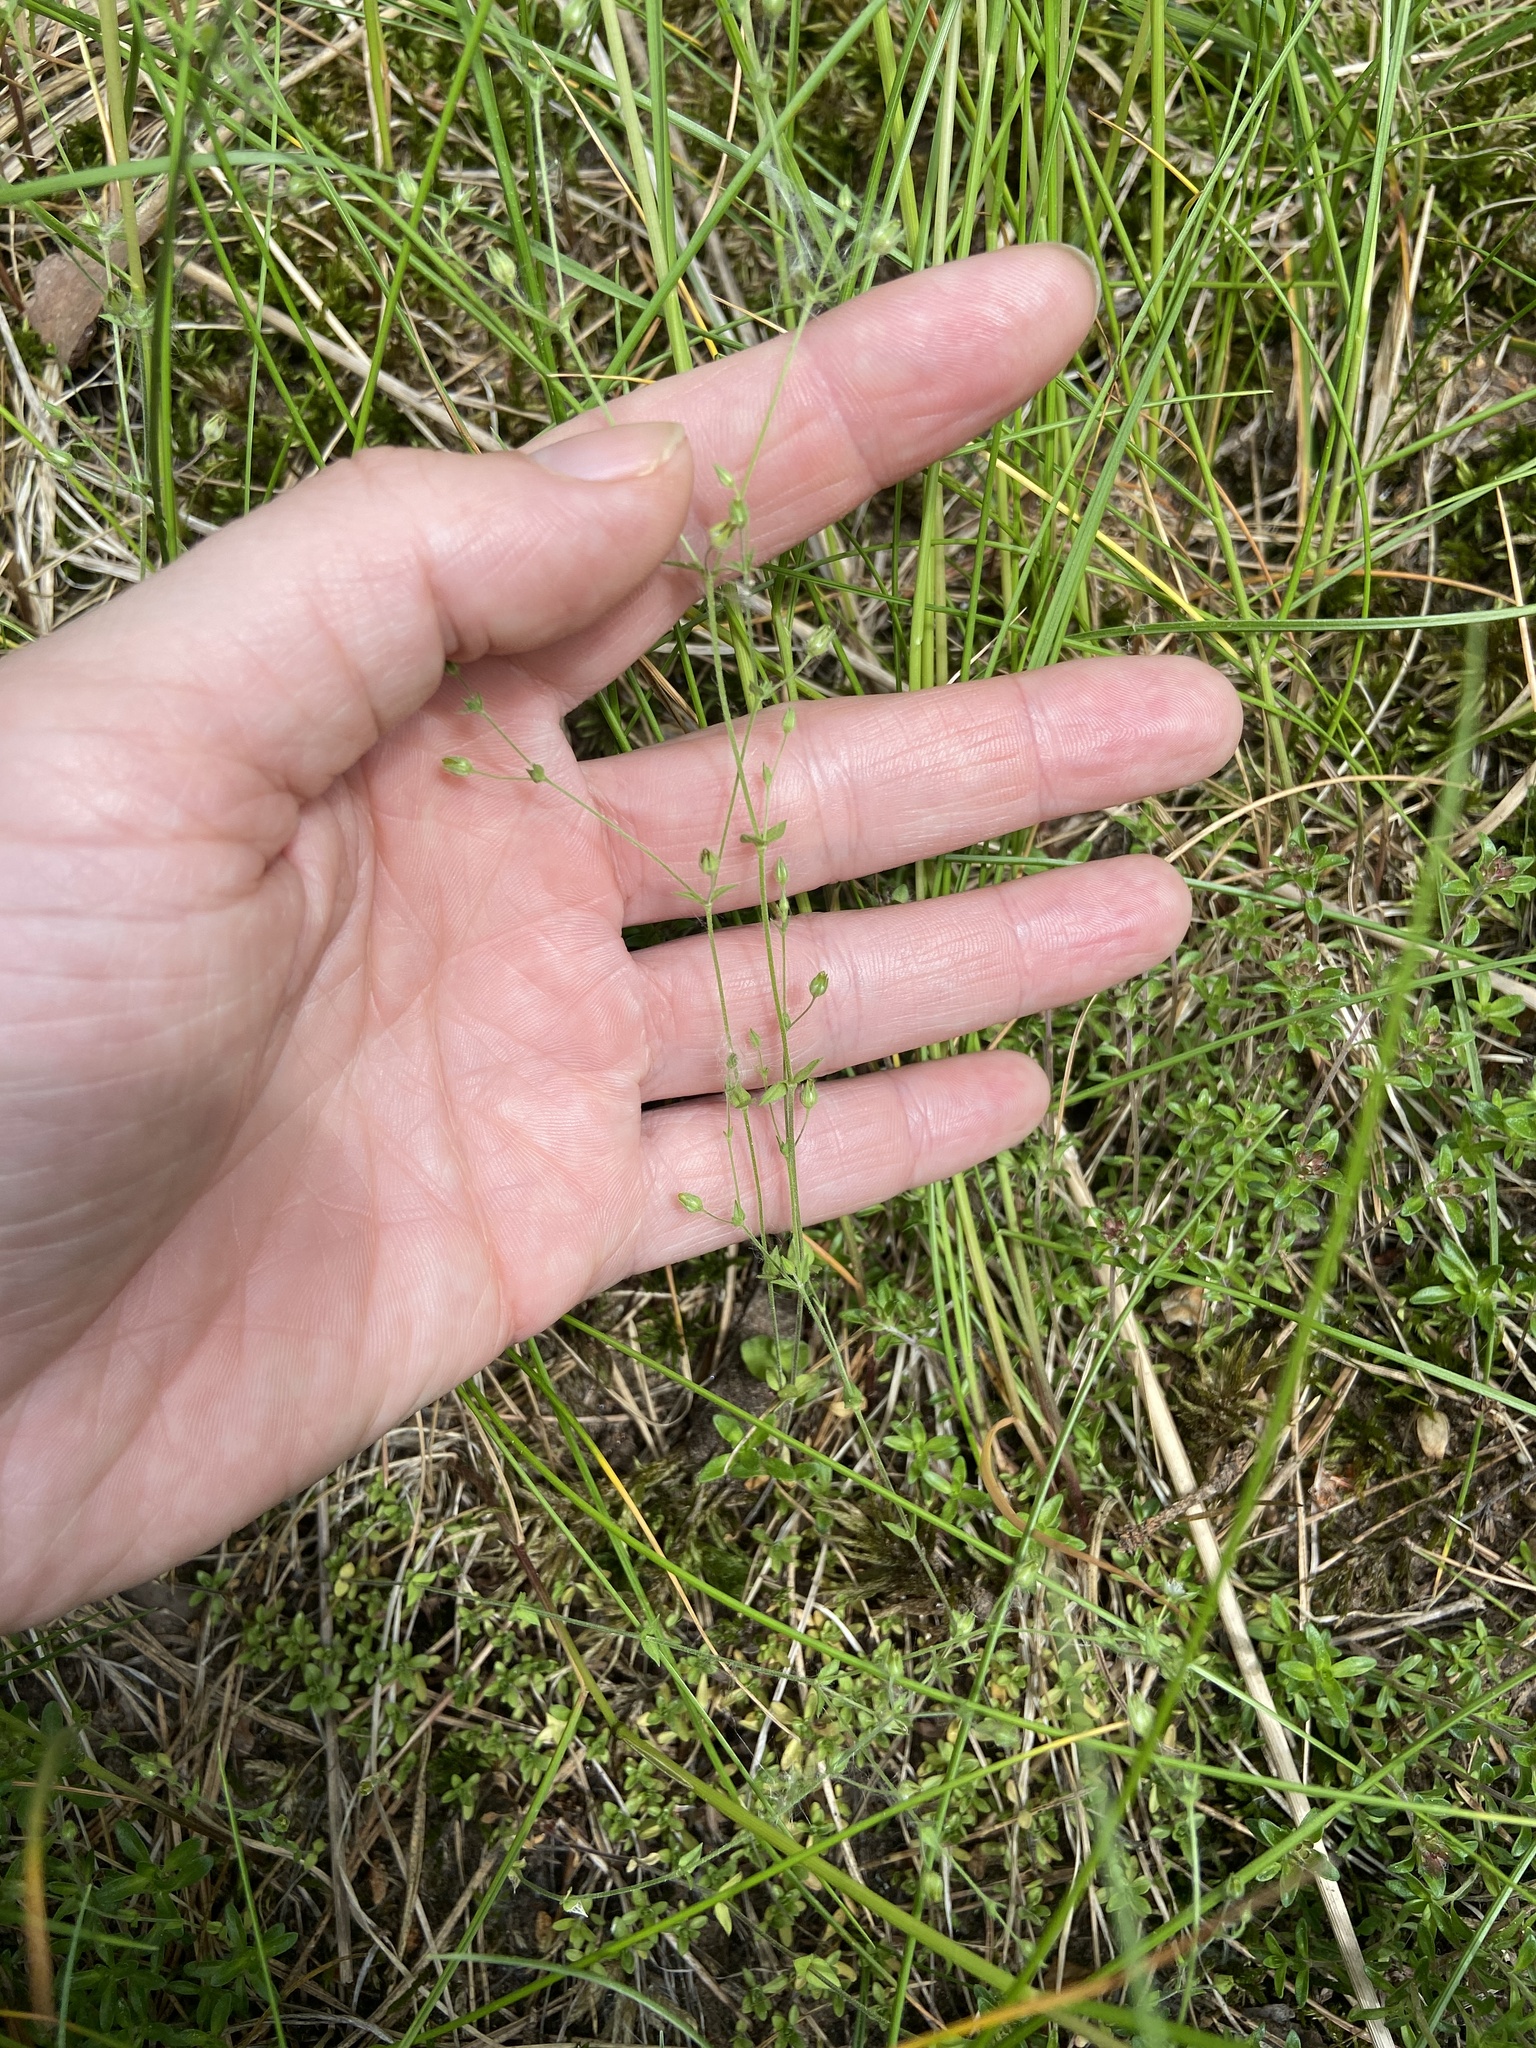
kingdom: Plantae
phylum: Tracheophyta
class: Magnoliopsida
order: Caryophyllales
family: Caryophyllaceae
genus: Arenaria
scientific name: Arenaria serpyllifolia
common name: Thyme-leaved sandwort
